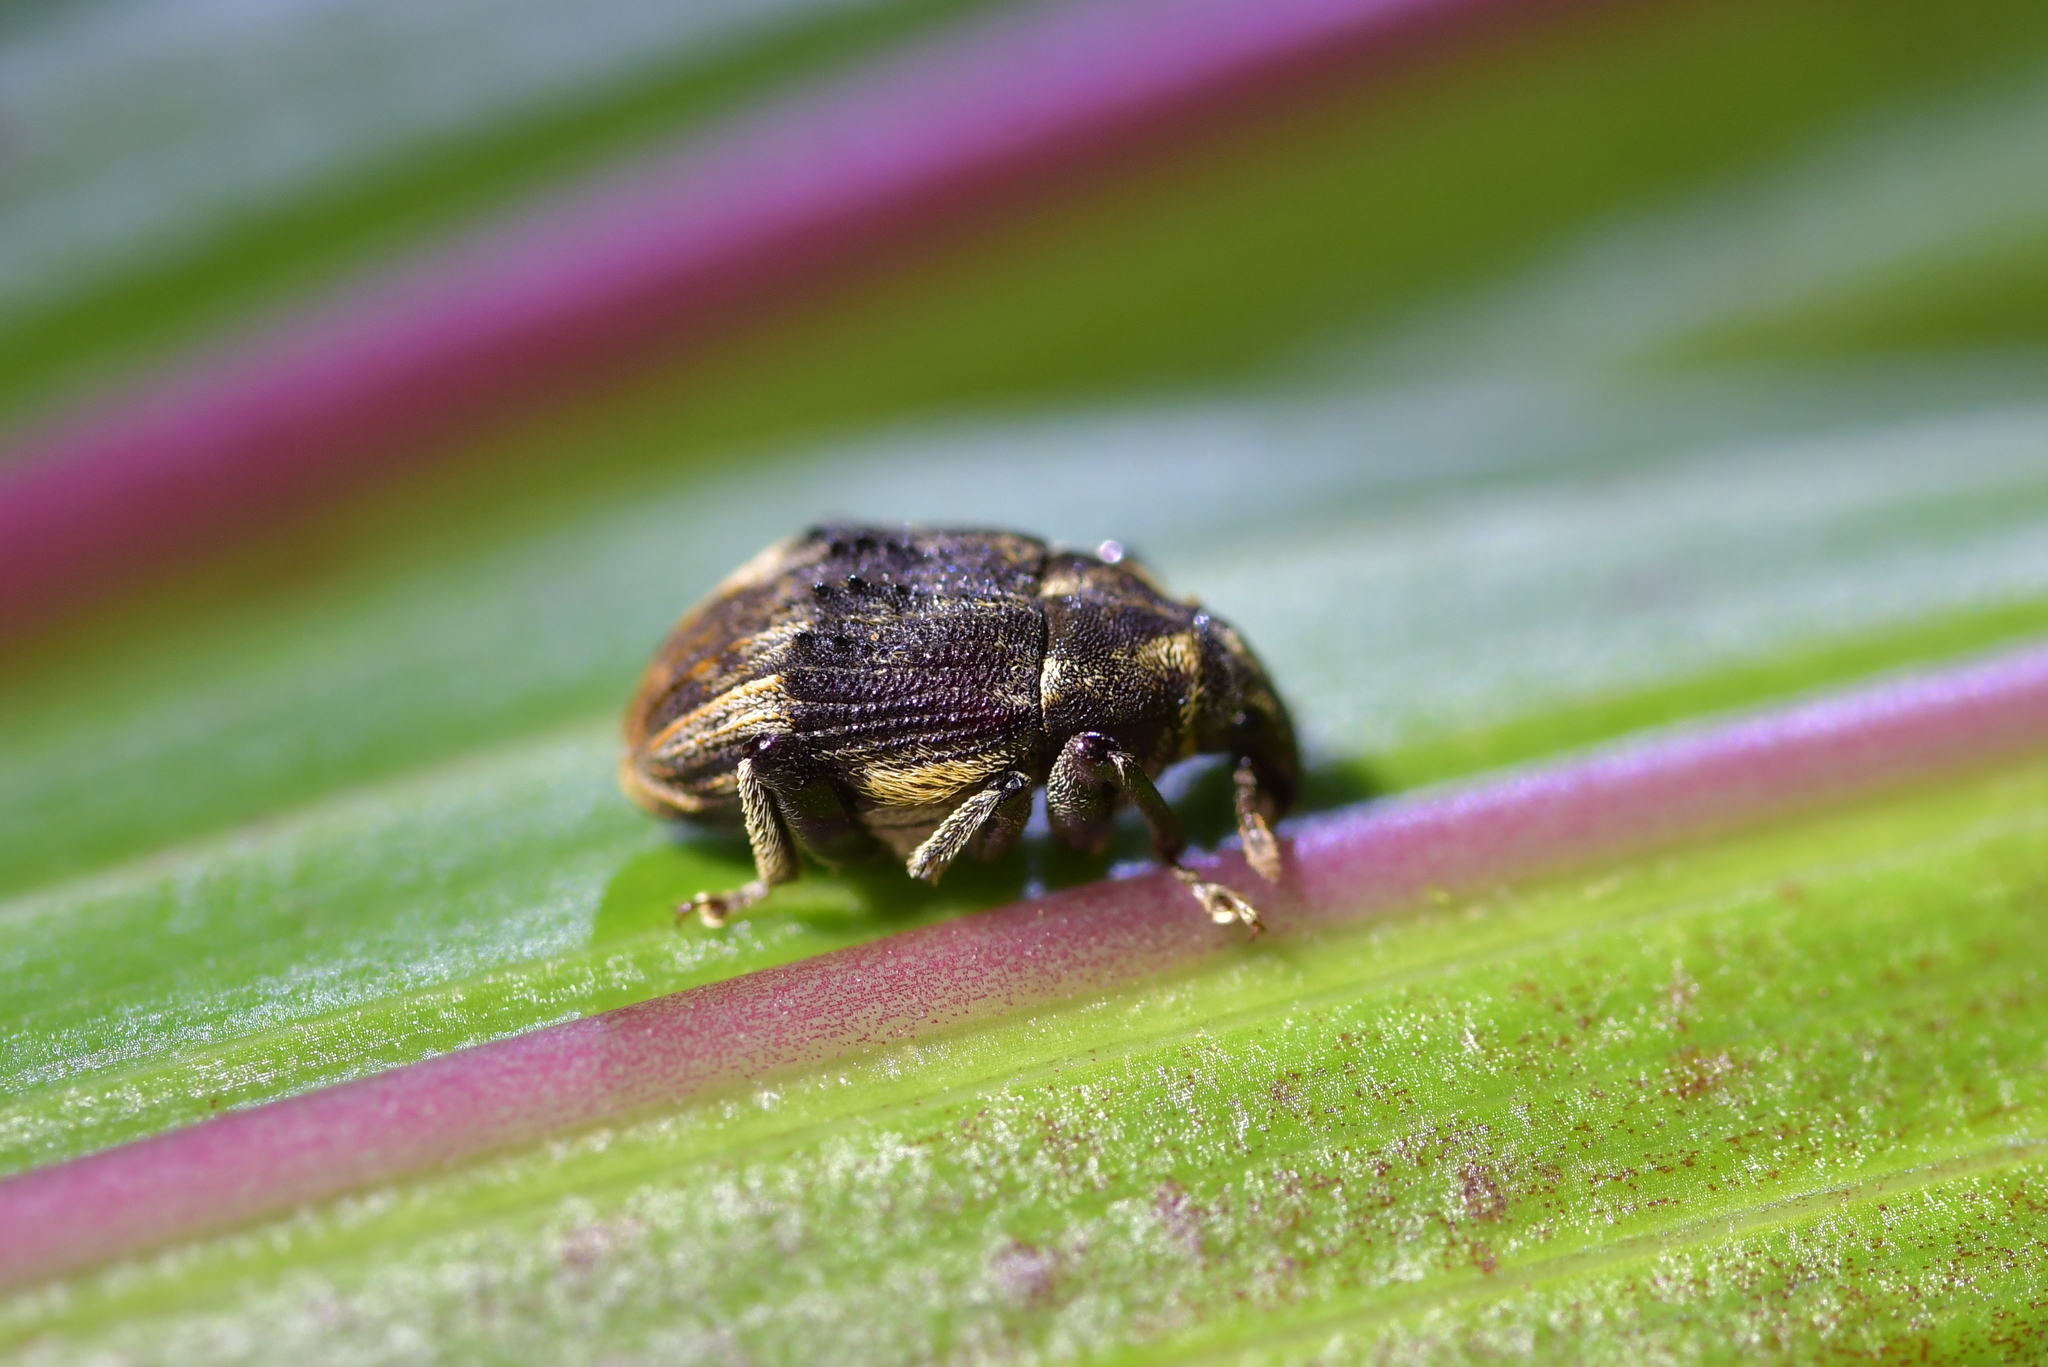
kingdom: Animalia
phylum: Arthropoda
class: Insecta
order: Coleoptera
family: Curculionidae
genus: Psepholax
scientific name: Psepholax sulcatus
